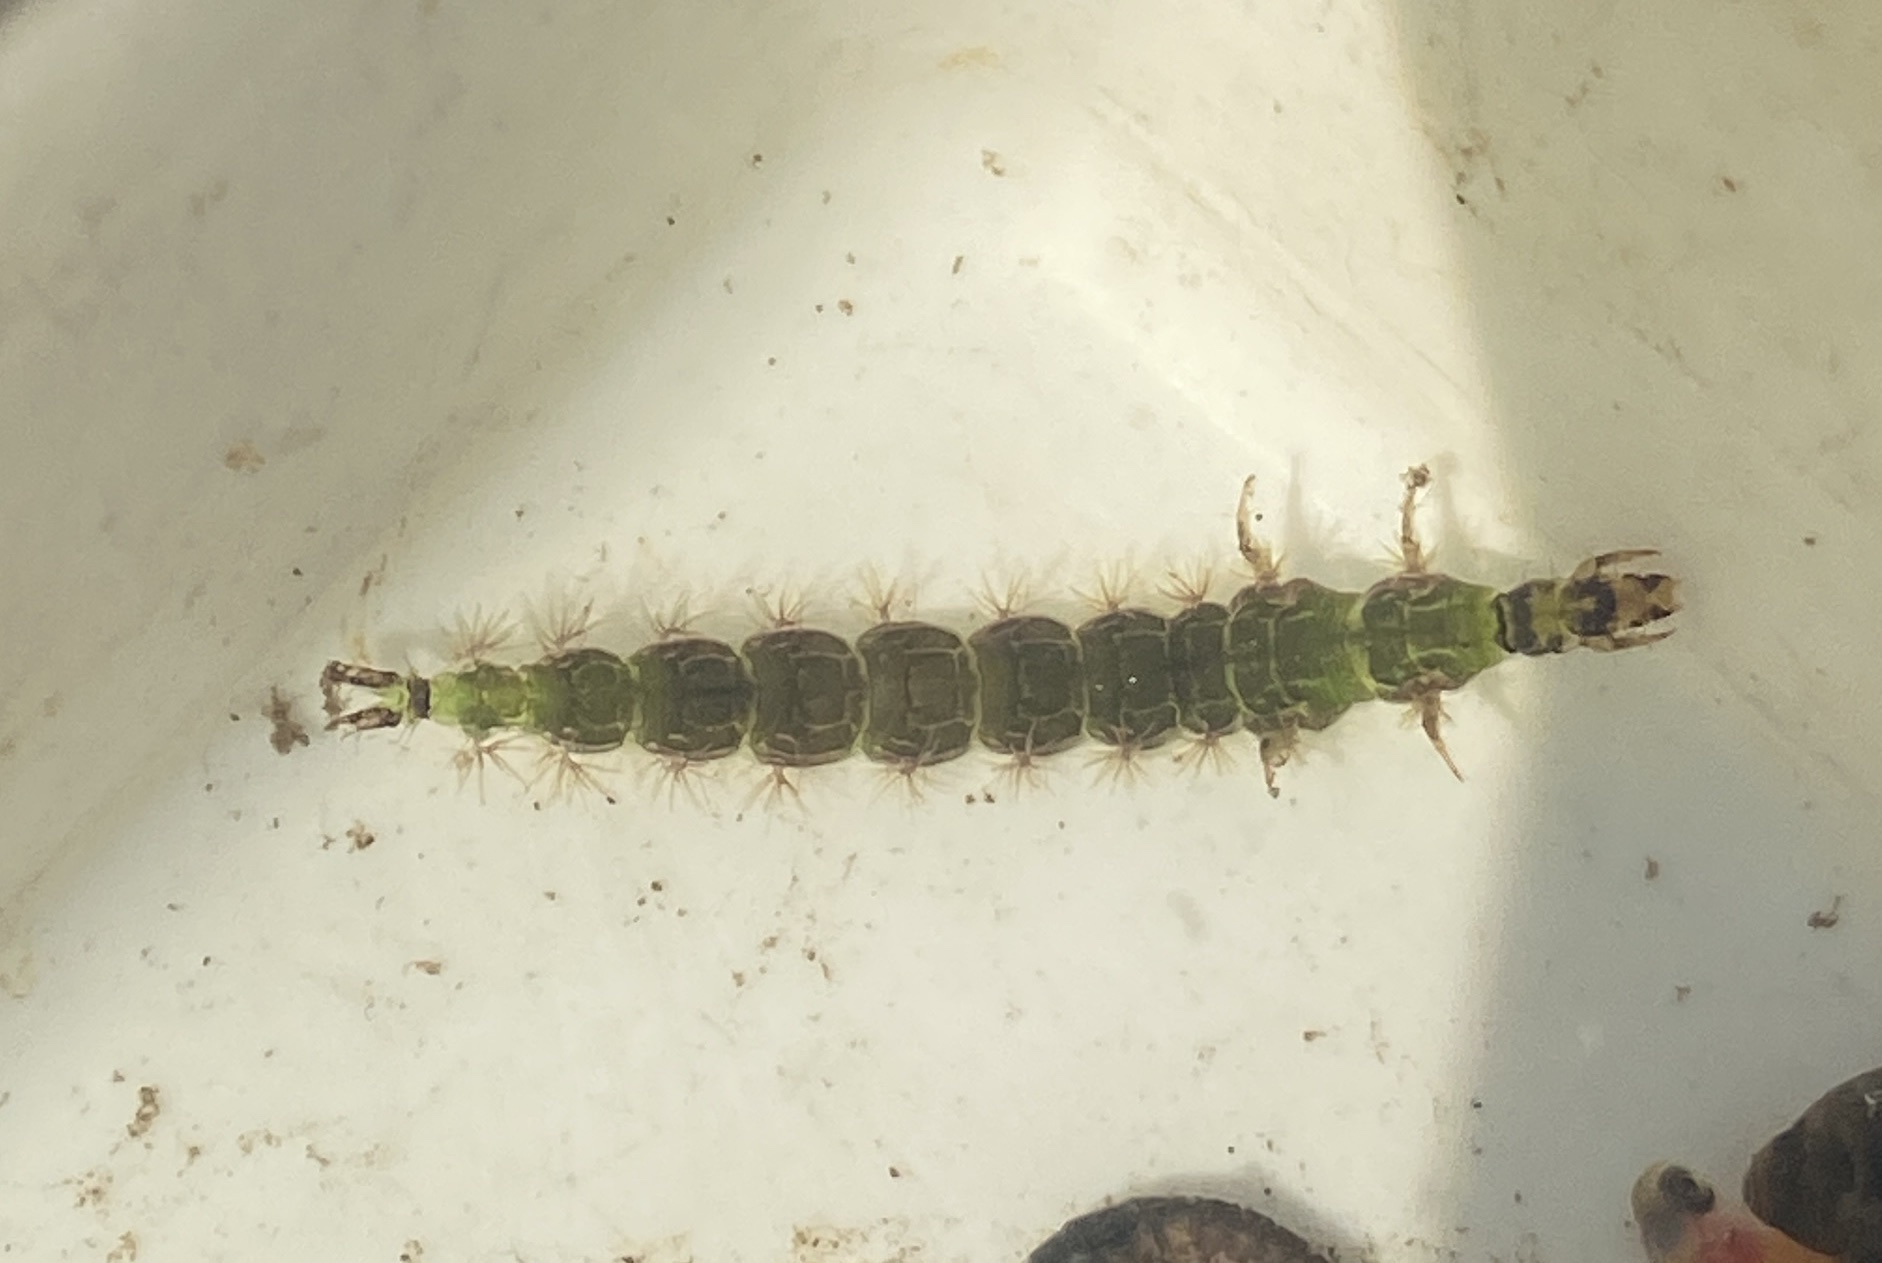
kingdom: Animalia
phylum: Arthropoda
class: Insecta
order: Trichoptera
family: Rhyacophilidae
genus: Rhyacophila
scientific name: Rhyacophila fasciata
